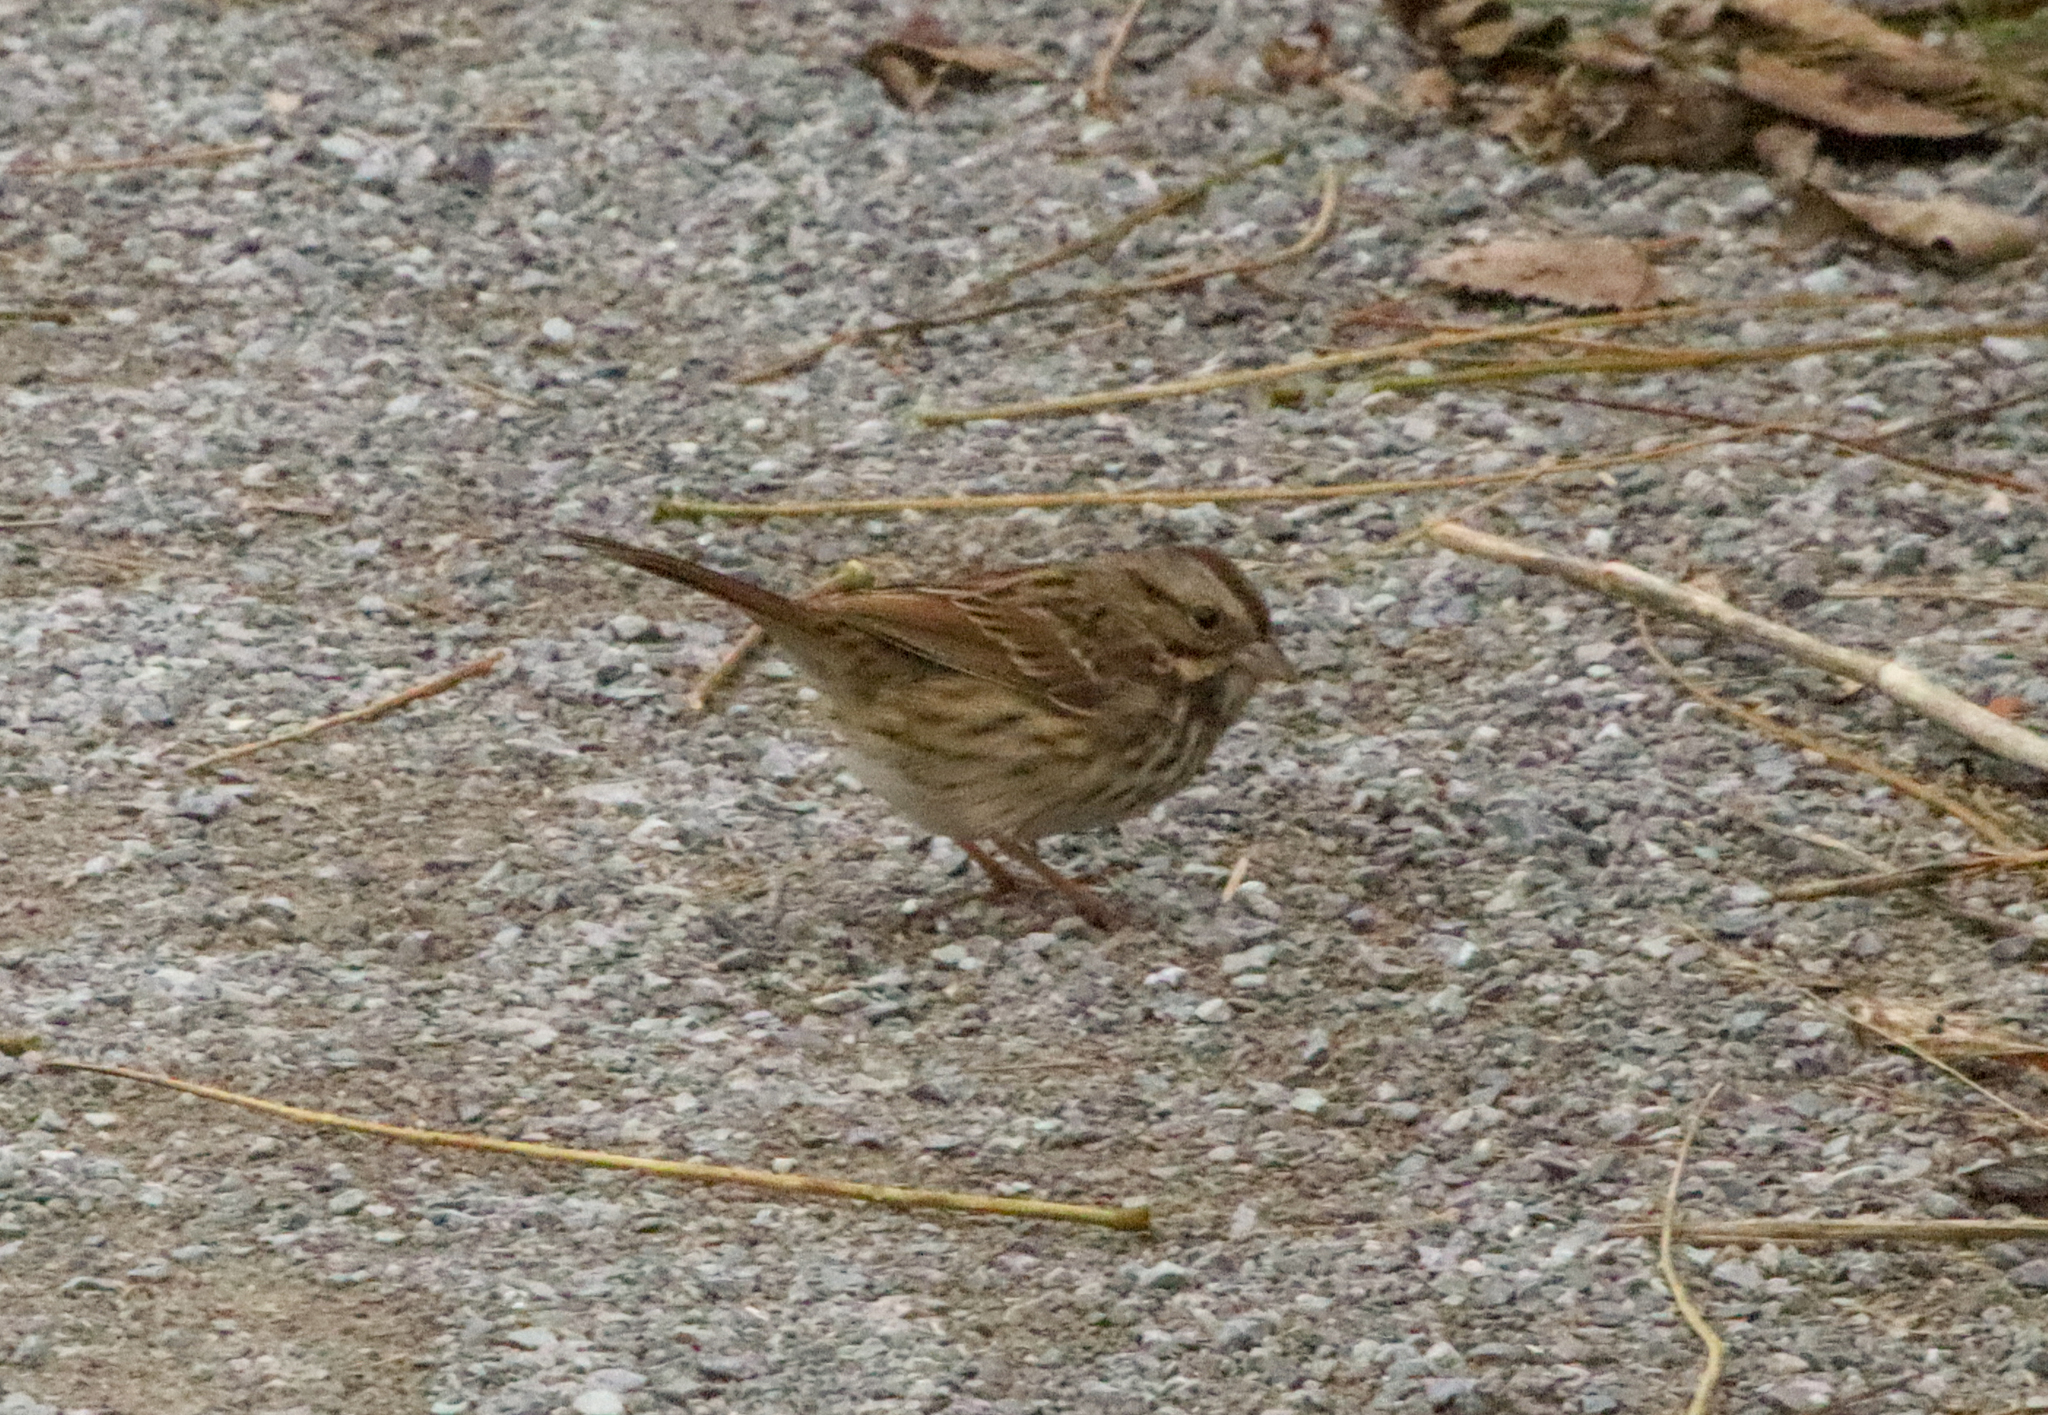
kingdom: Animalia
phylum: Chordata
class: Aves
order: Passeriformes
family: Passerellidae
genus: Melospiza
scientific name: Melospiza melodia
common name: Song sparrow
